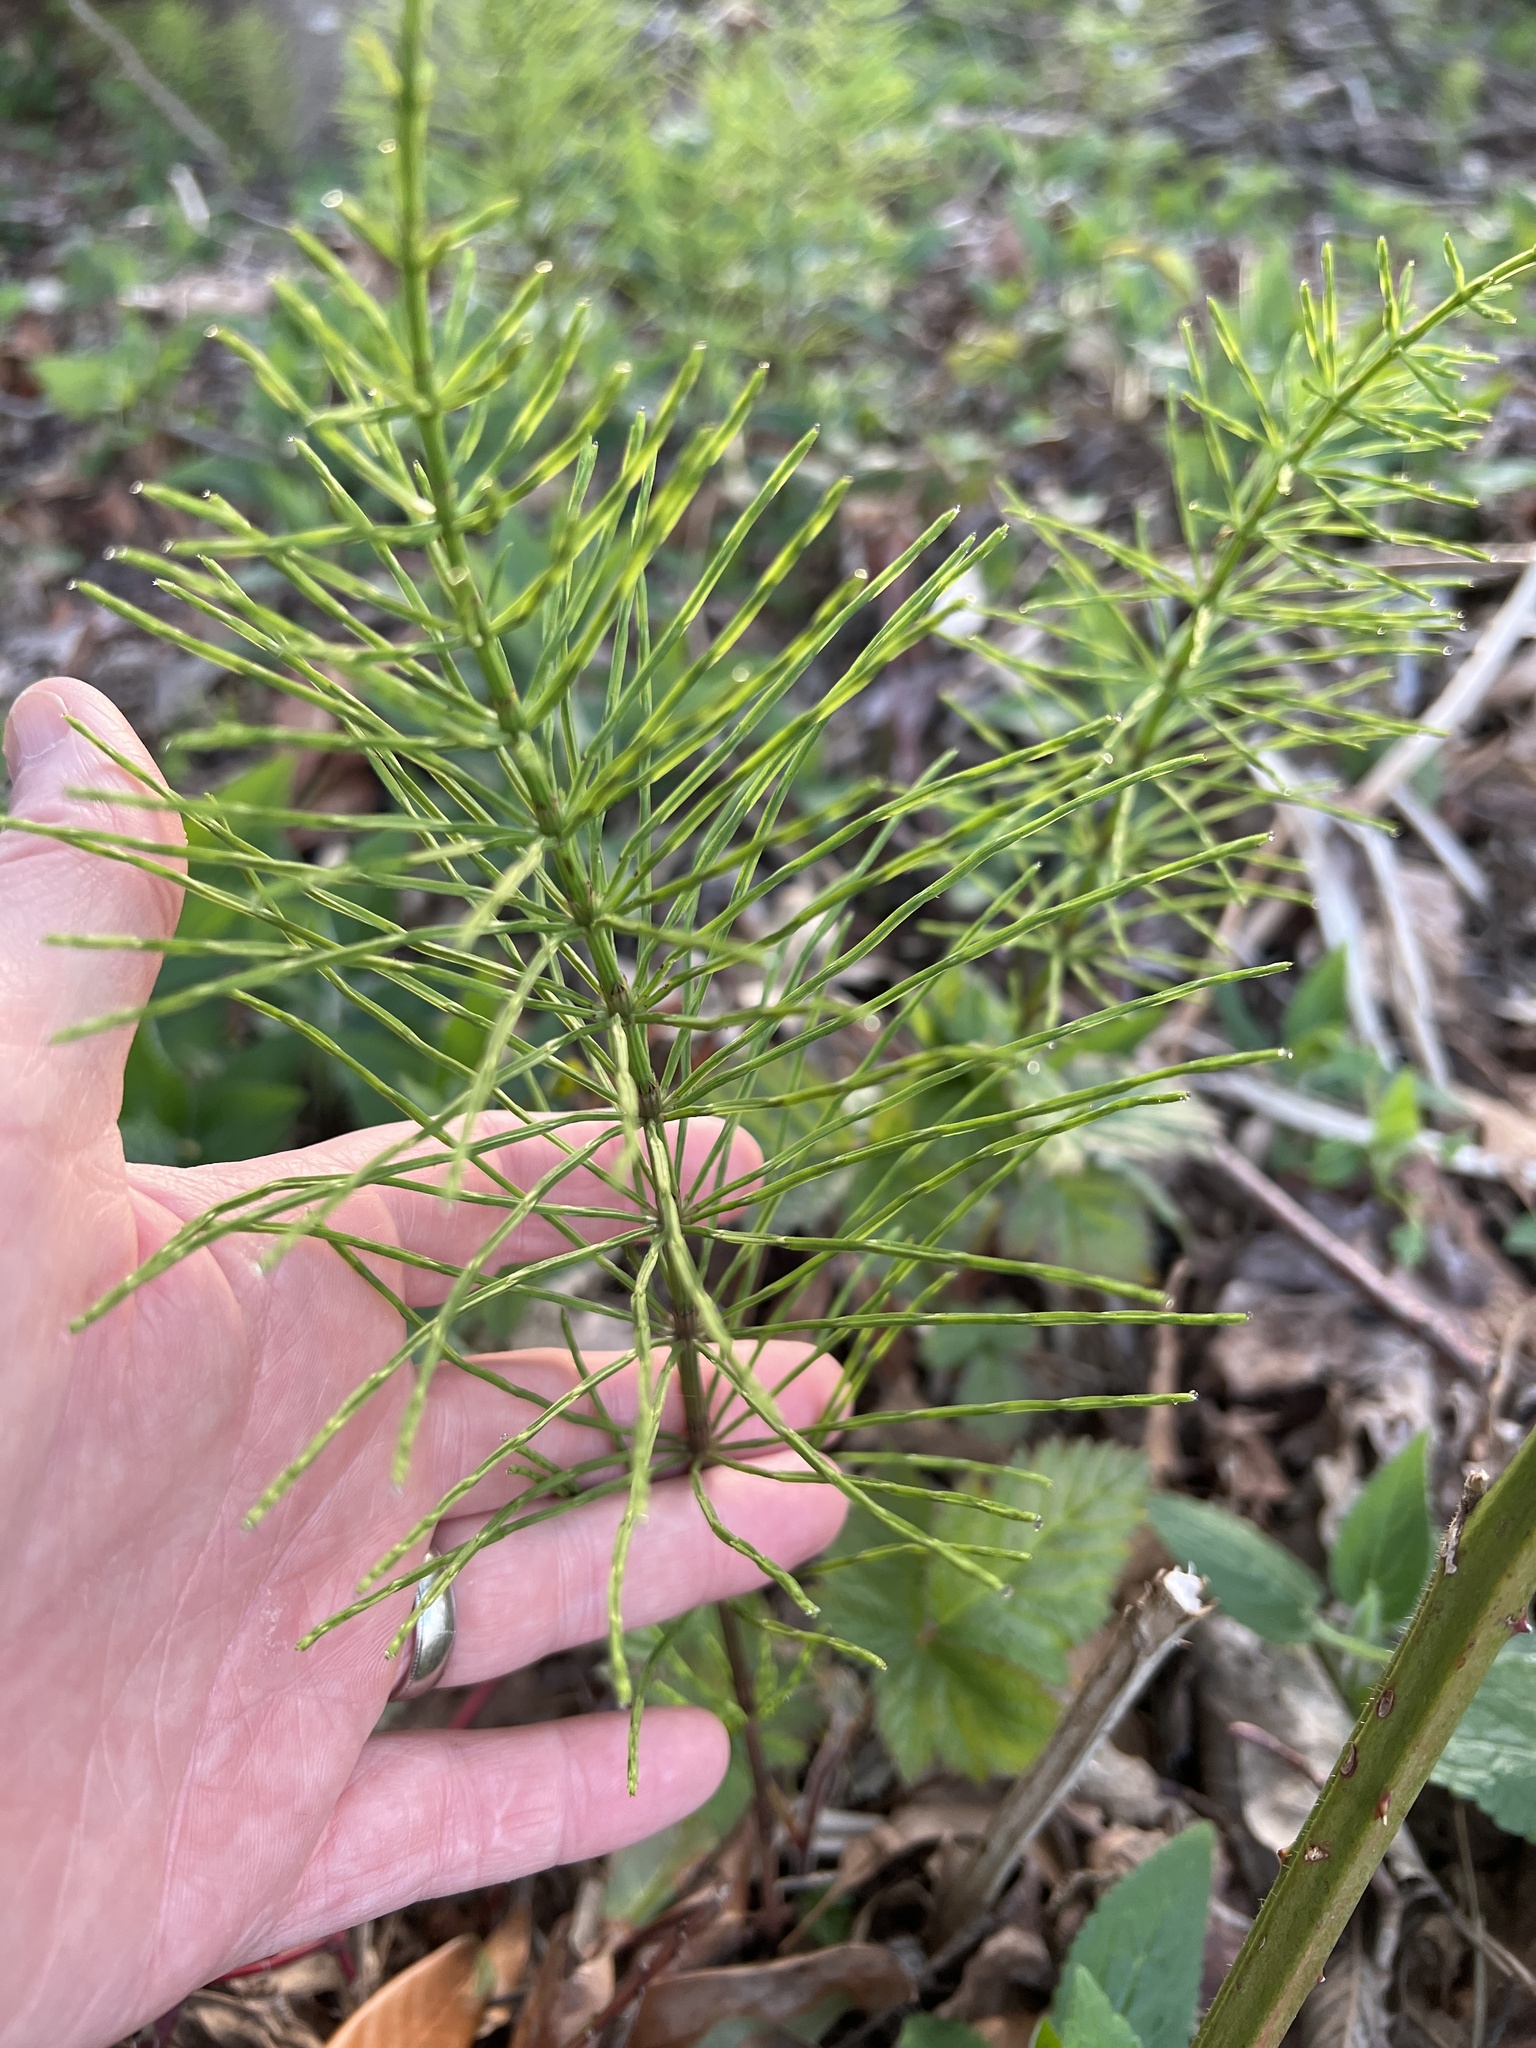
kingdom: Plantae
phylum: Tracheophyta
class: Polypodiopsida
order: Equisetales
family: Equisetaceae
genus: Equisetum
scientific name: Equisetum arvense
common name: Field horsetail
